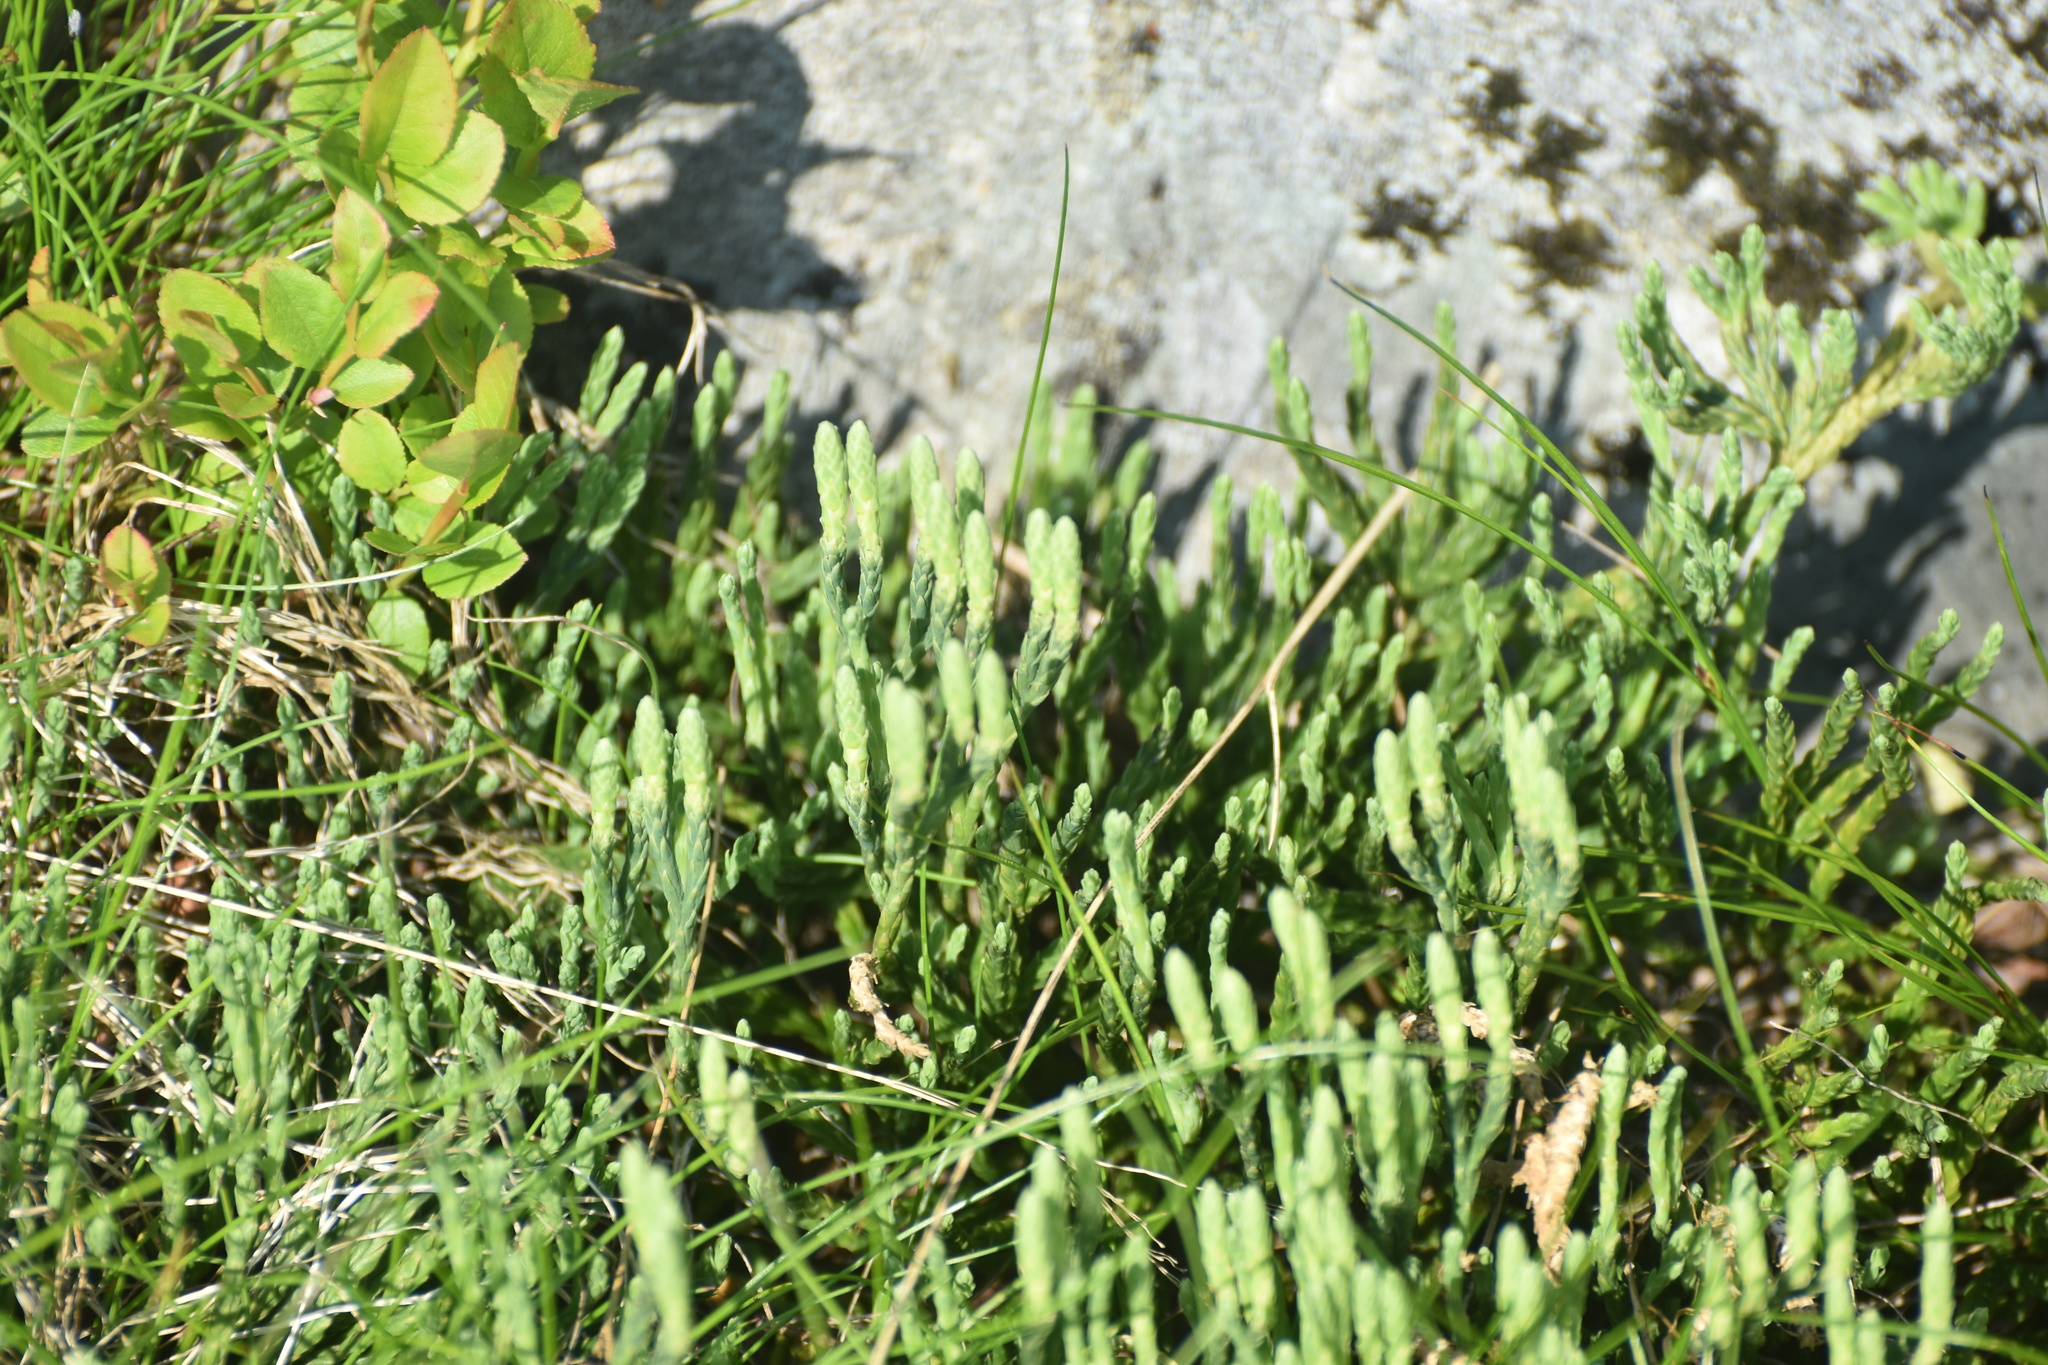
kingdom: Plantae
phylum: Tracheophyta
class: Lycopodiopsida
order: Lycopodiales
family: Lycopodiaceae
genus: Diphasiastrum
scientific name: Diphasiastrum alpinum
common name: Alpine clubmoss
